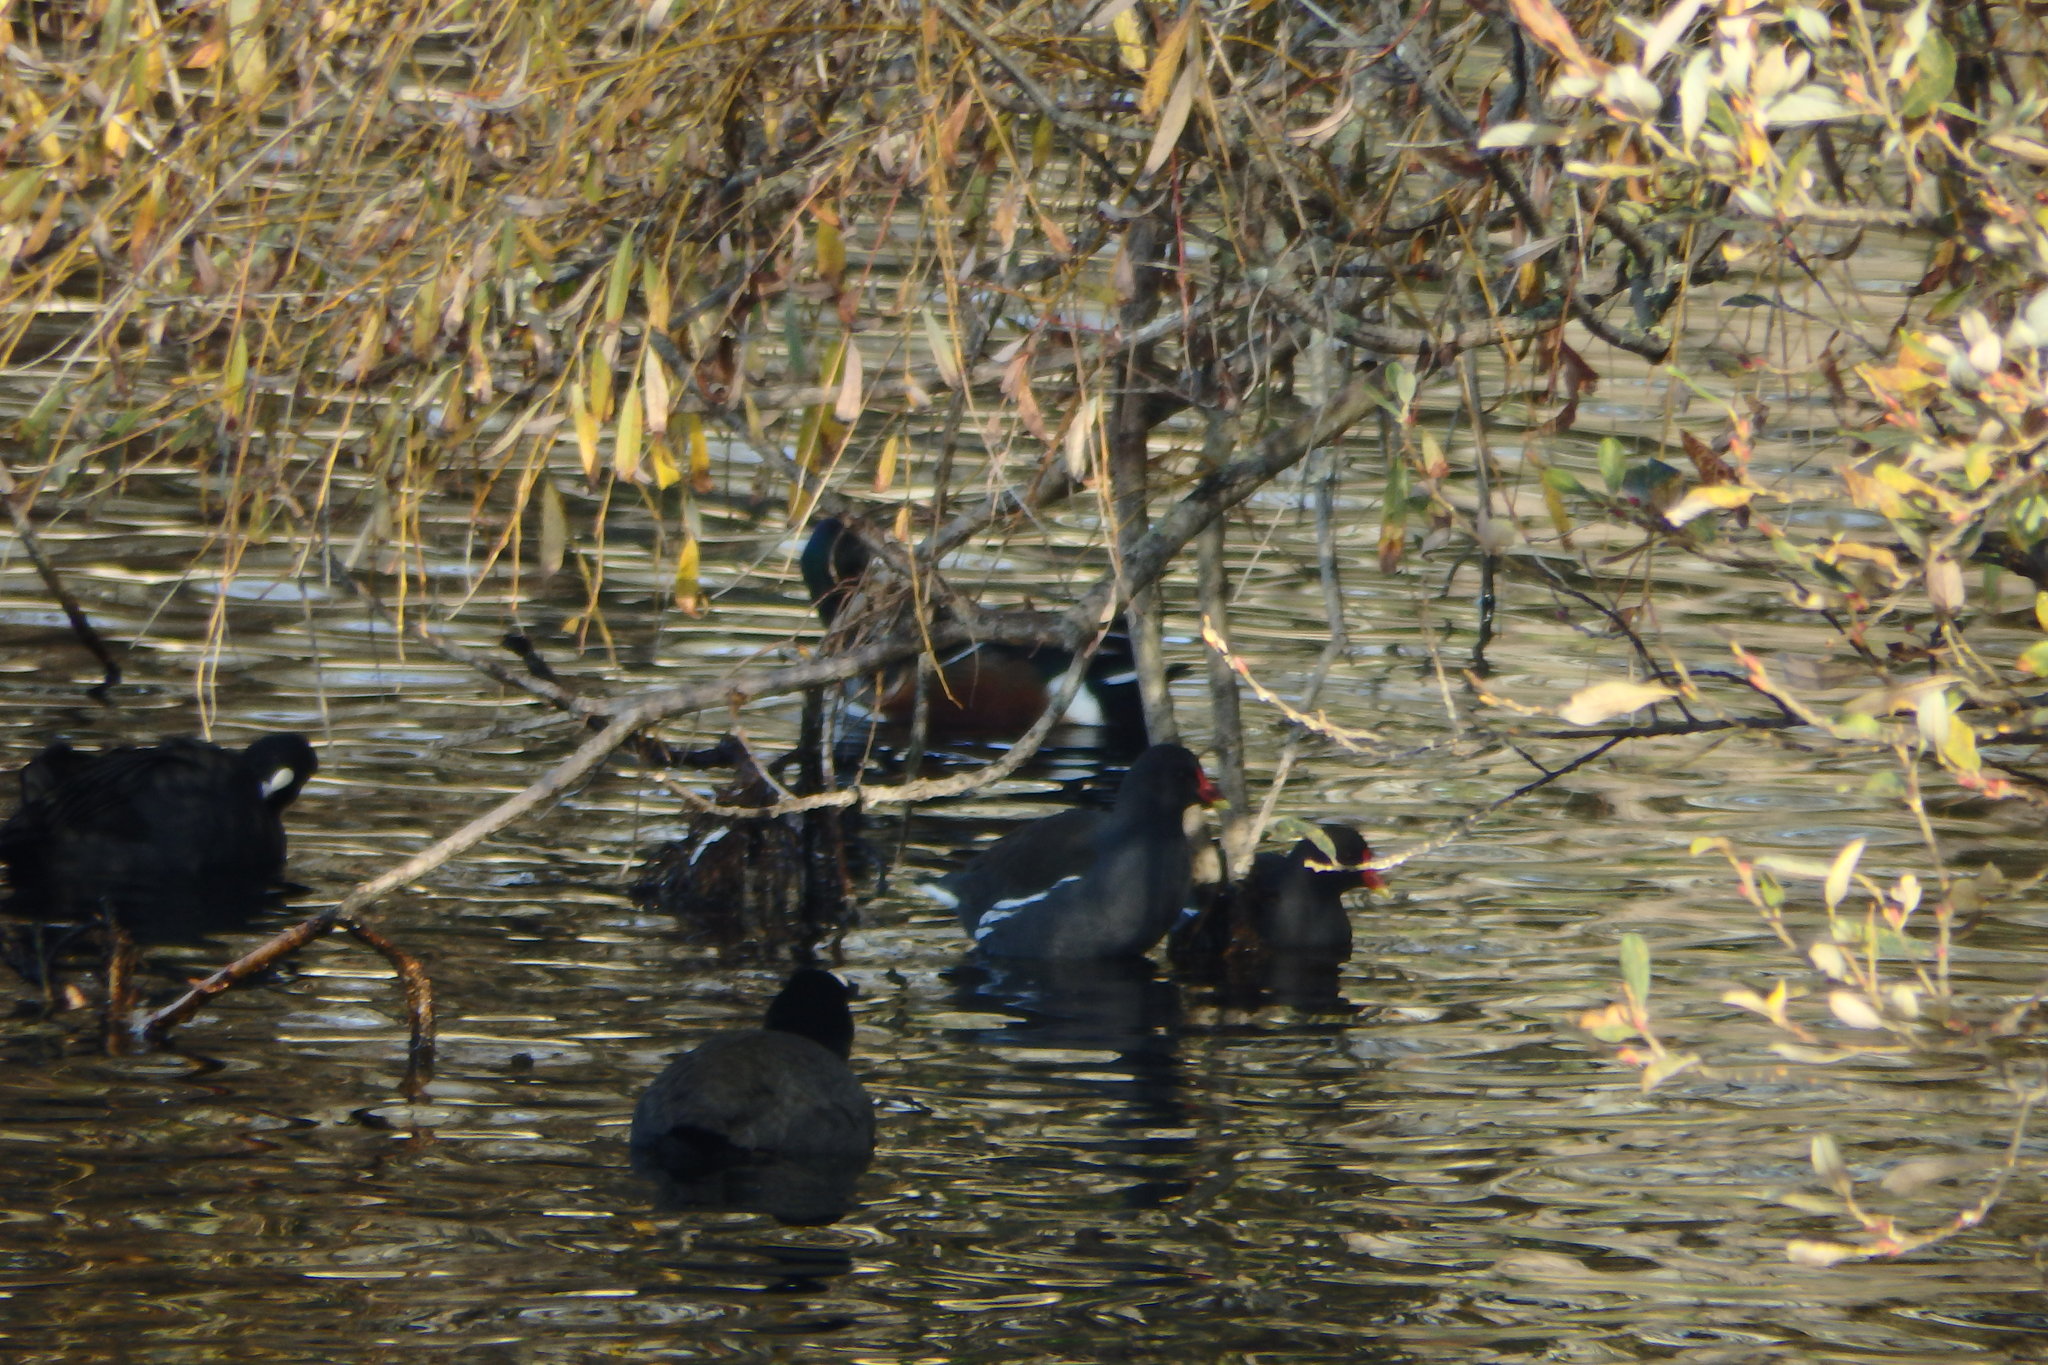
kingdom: Animalia
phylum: Chordata
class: Aves
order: Gruiformes
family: Rallidae
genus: Gallinula
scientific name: Gallinula chloropus
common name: Common moorhen
